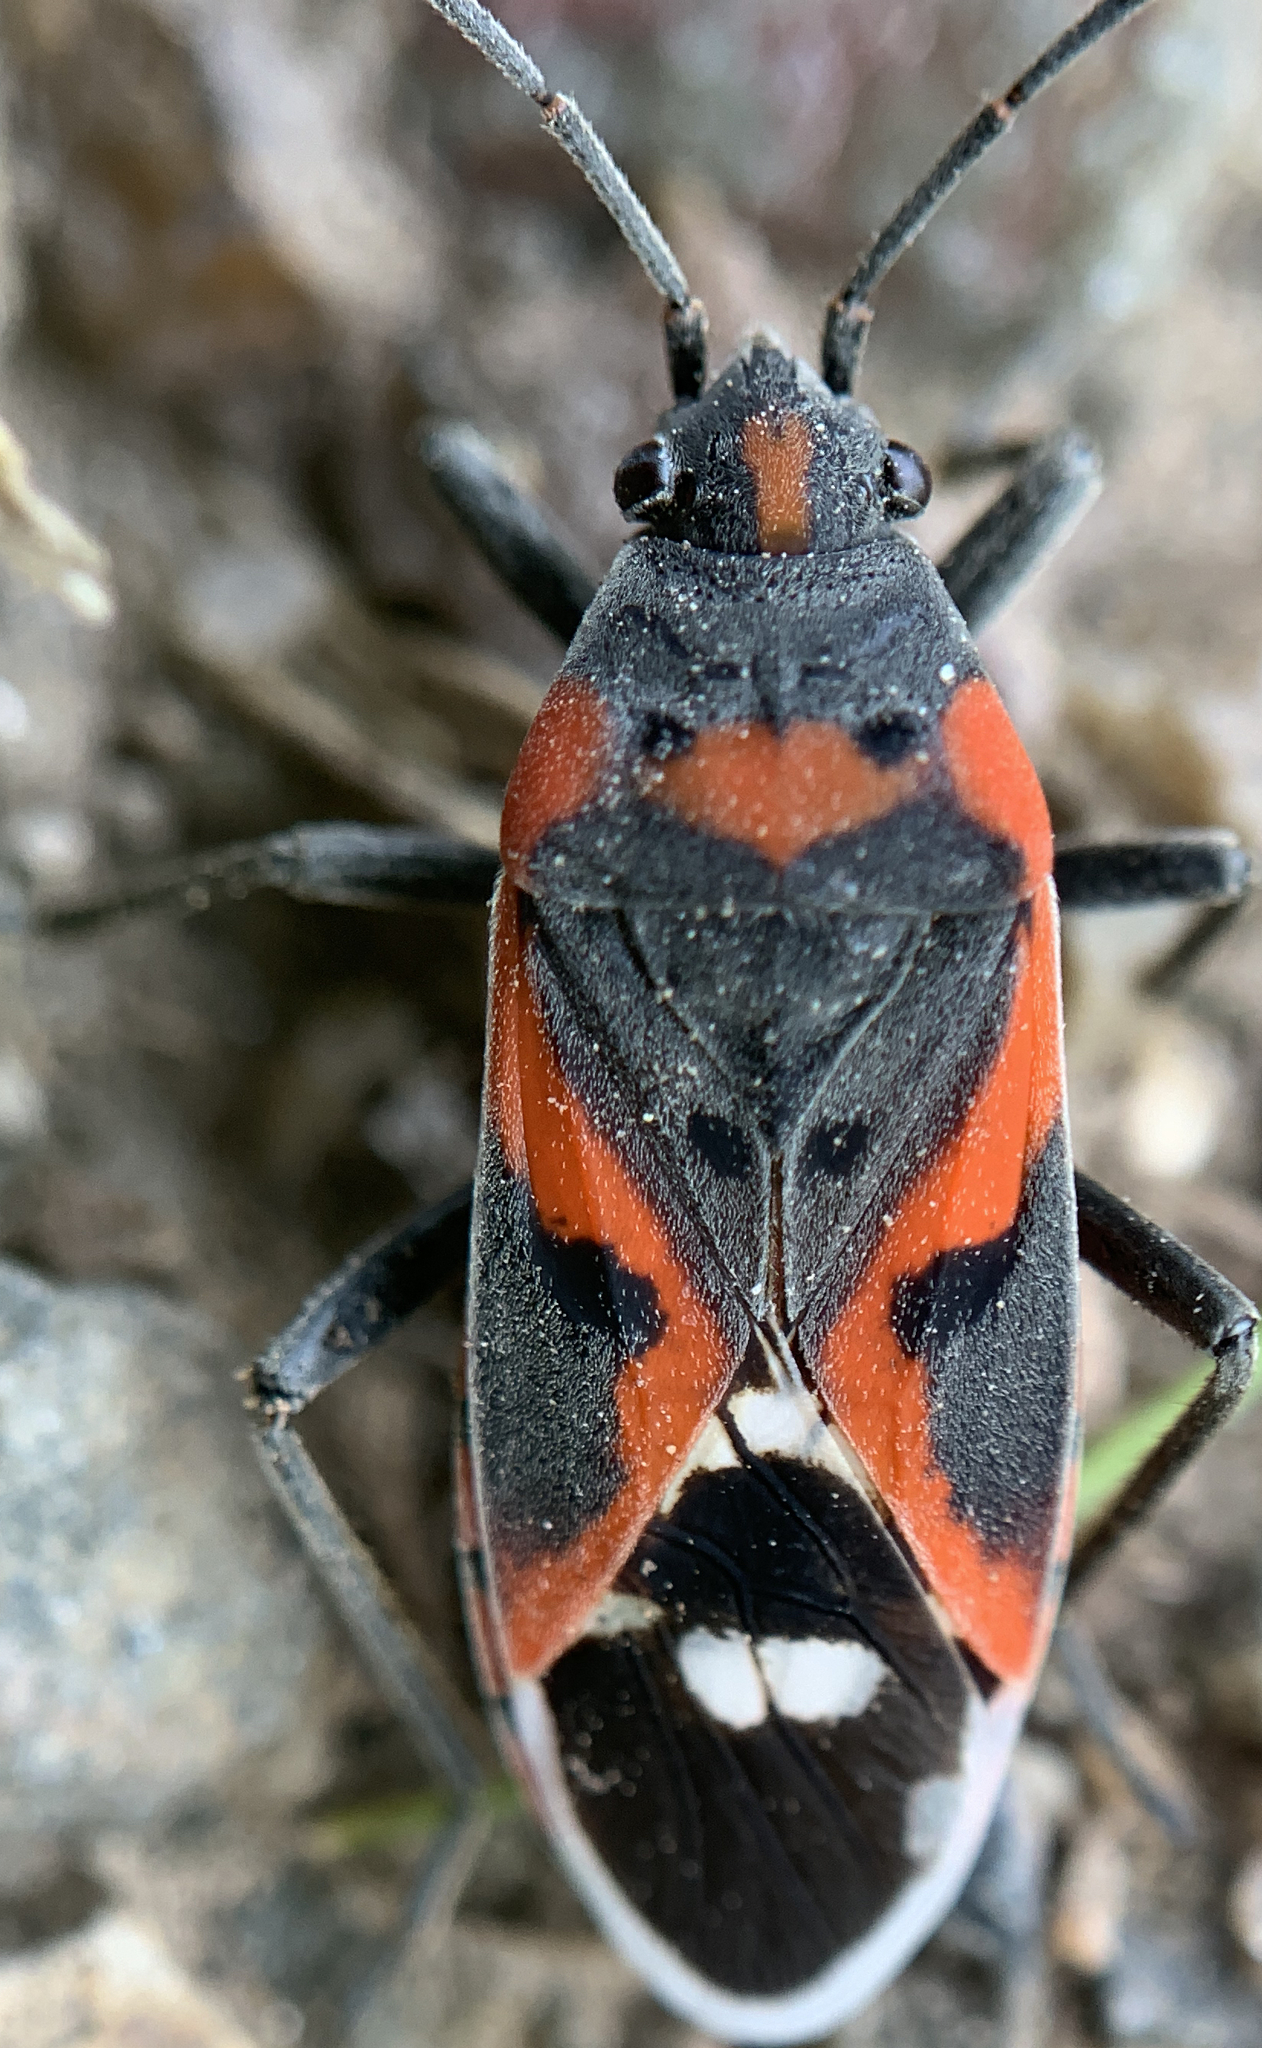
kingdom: Animalia
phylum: Arthropoda
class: Insecta
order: Hemiptera
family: Lygaeidae
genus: Lygaeus
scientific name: Lygaeus kalmii
